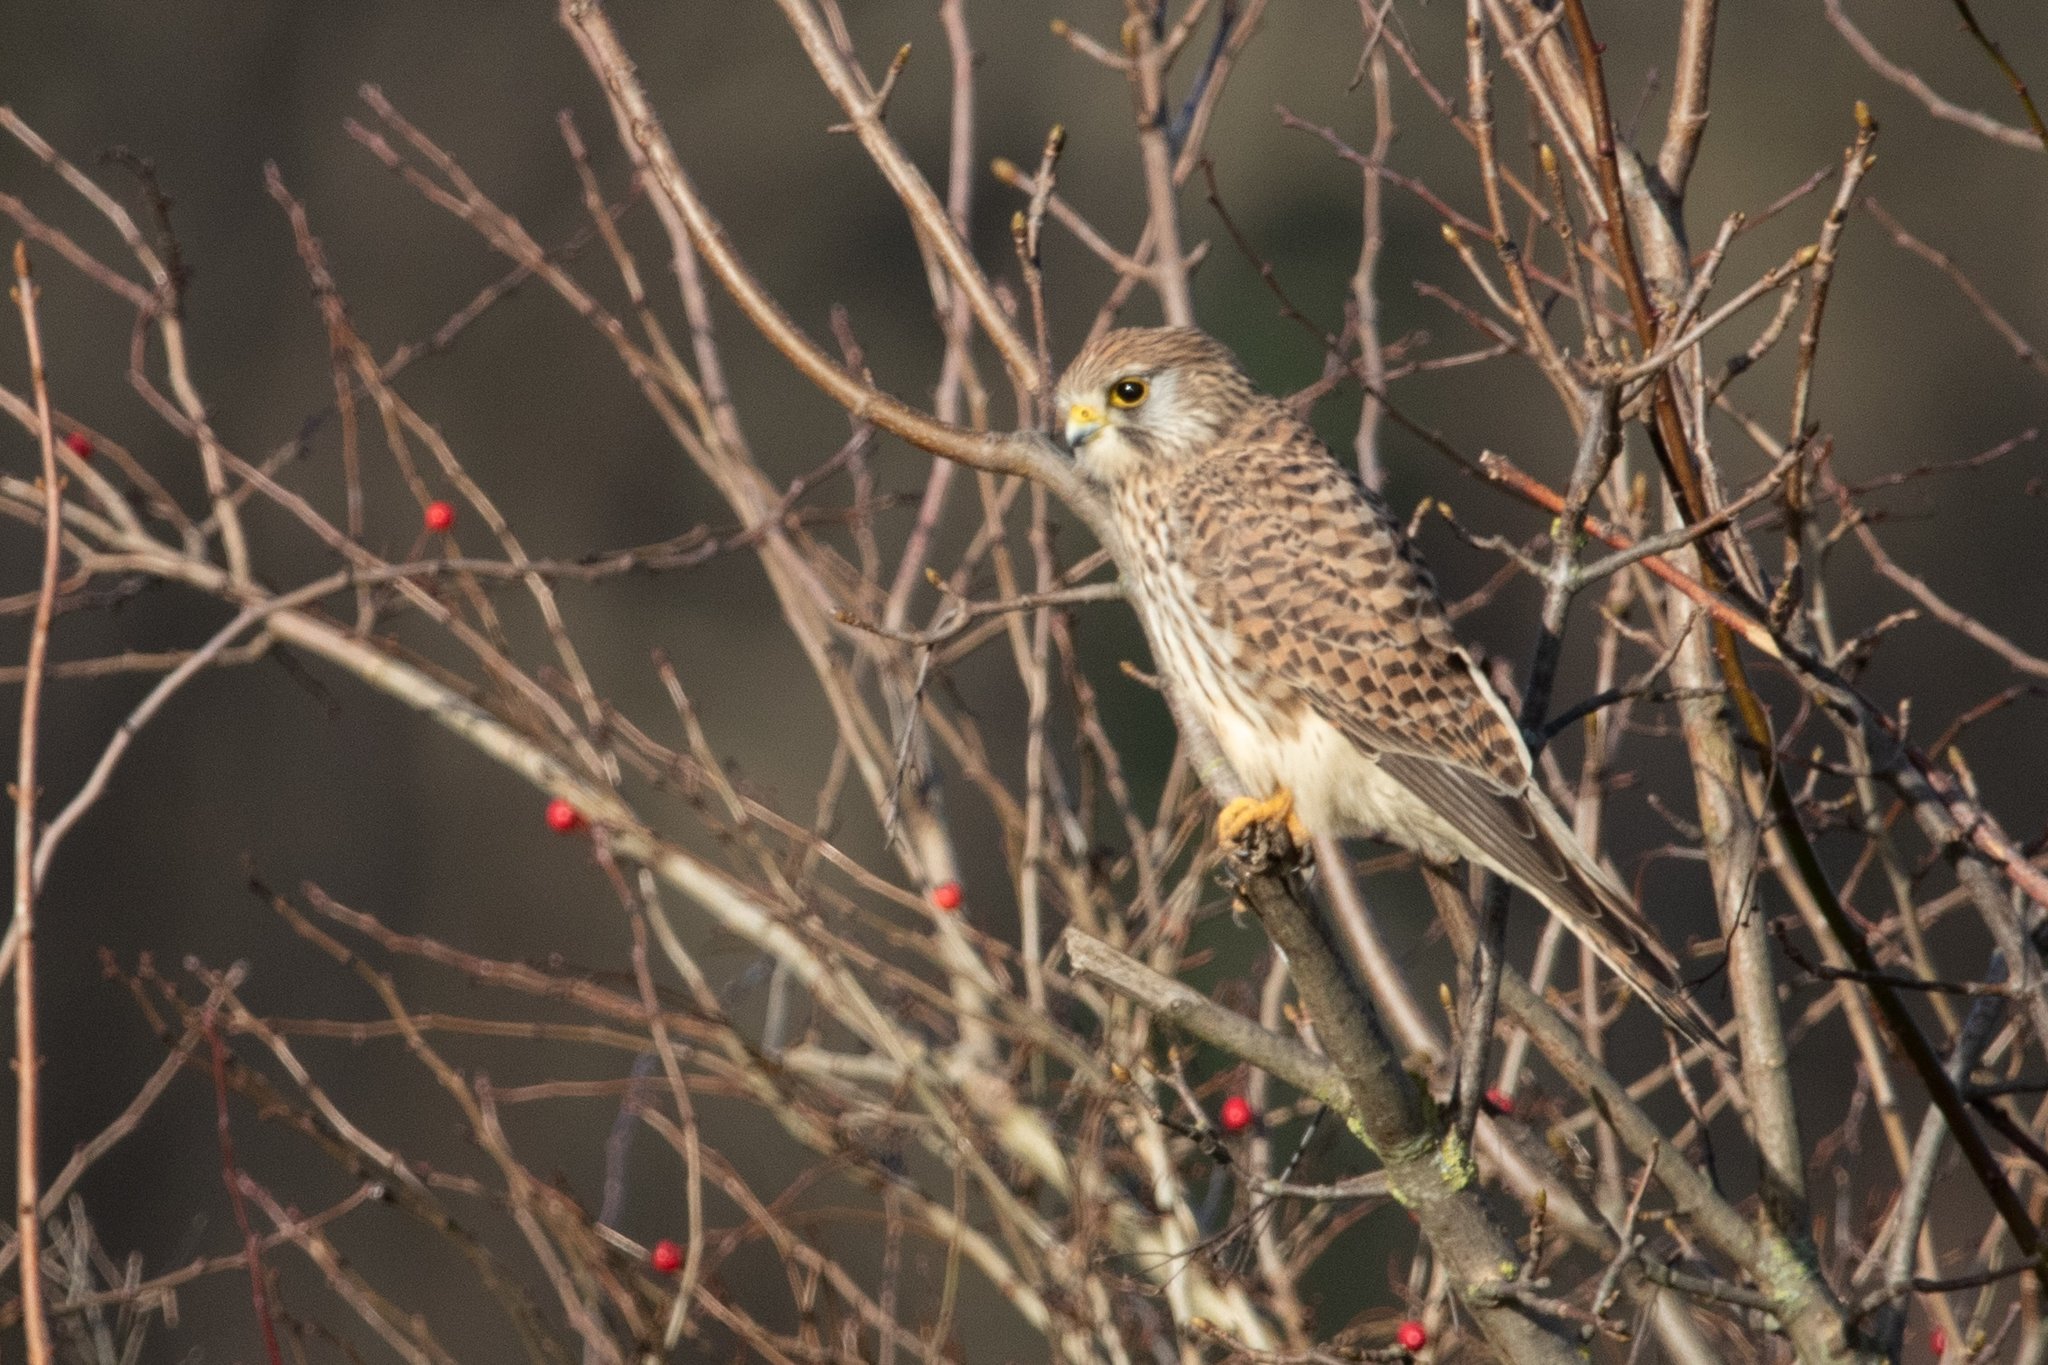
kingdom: Animalia
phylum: Chordata
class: Aves
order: Falconiformes
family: Falconidae
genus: Falco
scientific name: Falco tinnunculus
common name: Common kestrel
